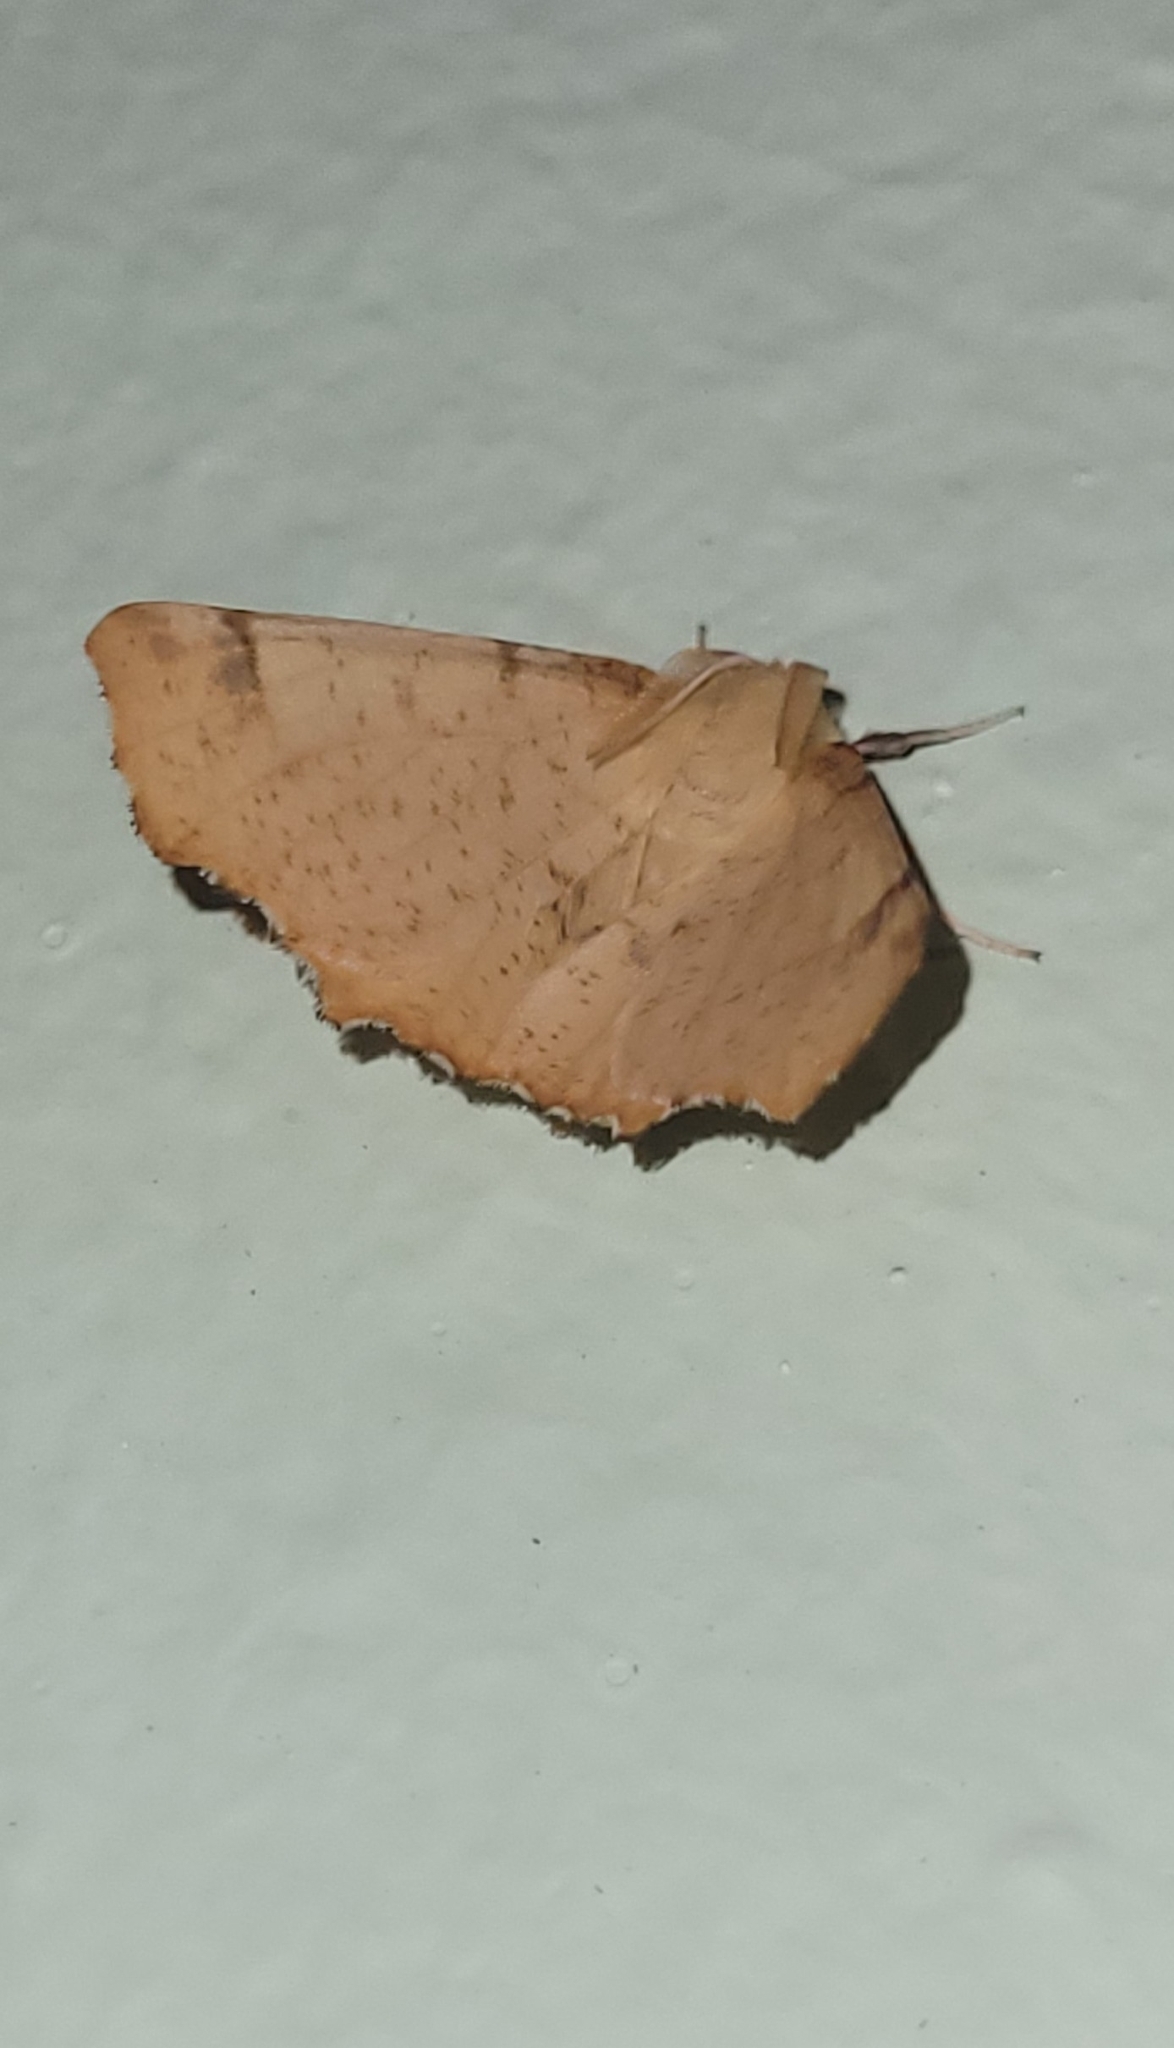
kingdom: Animalia
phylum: Arthropoda
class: Insecta
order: Lepidoptera
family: Geometridae
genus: Ennomos
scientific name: Ennomos autumnaria
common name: Large thorn
